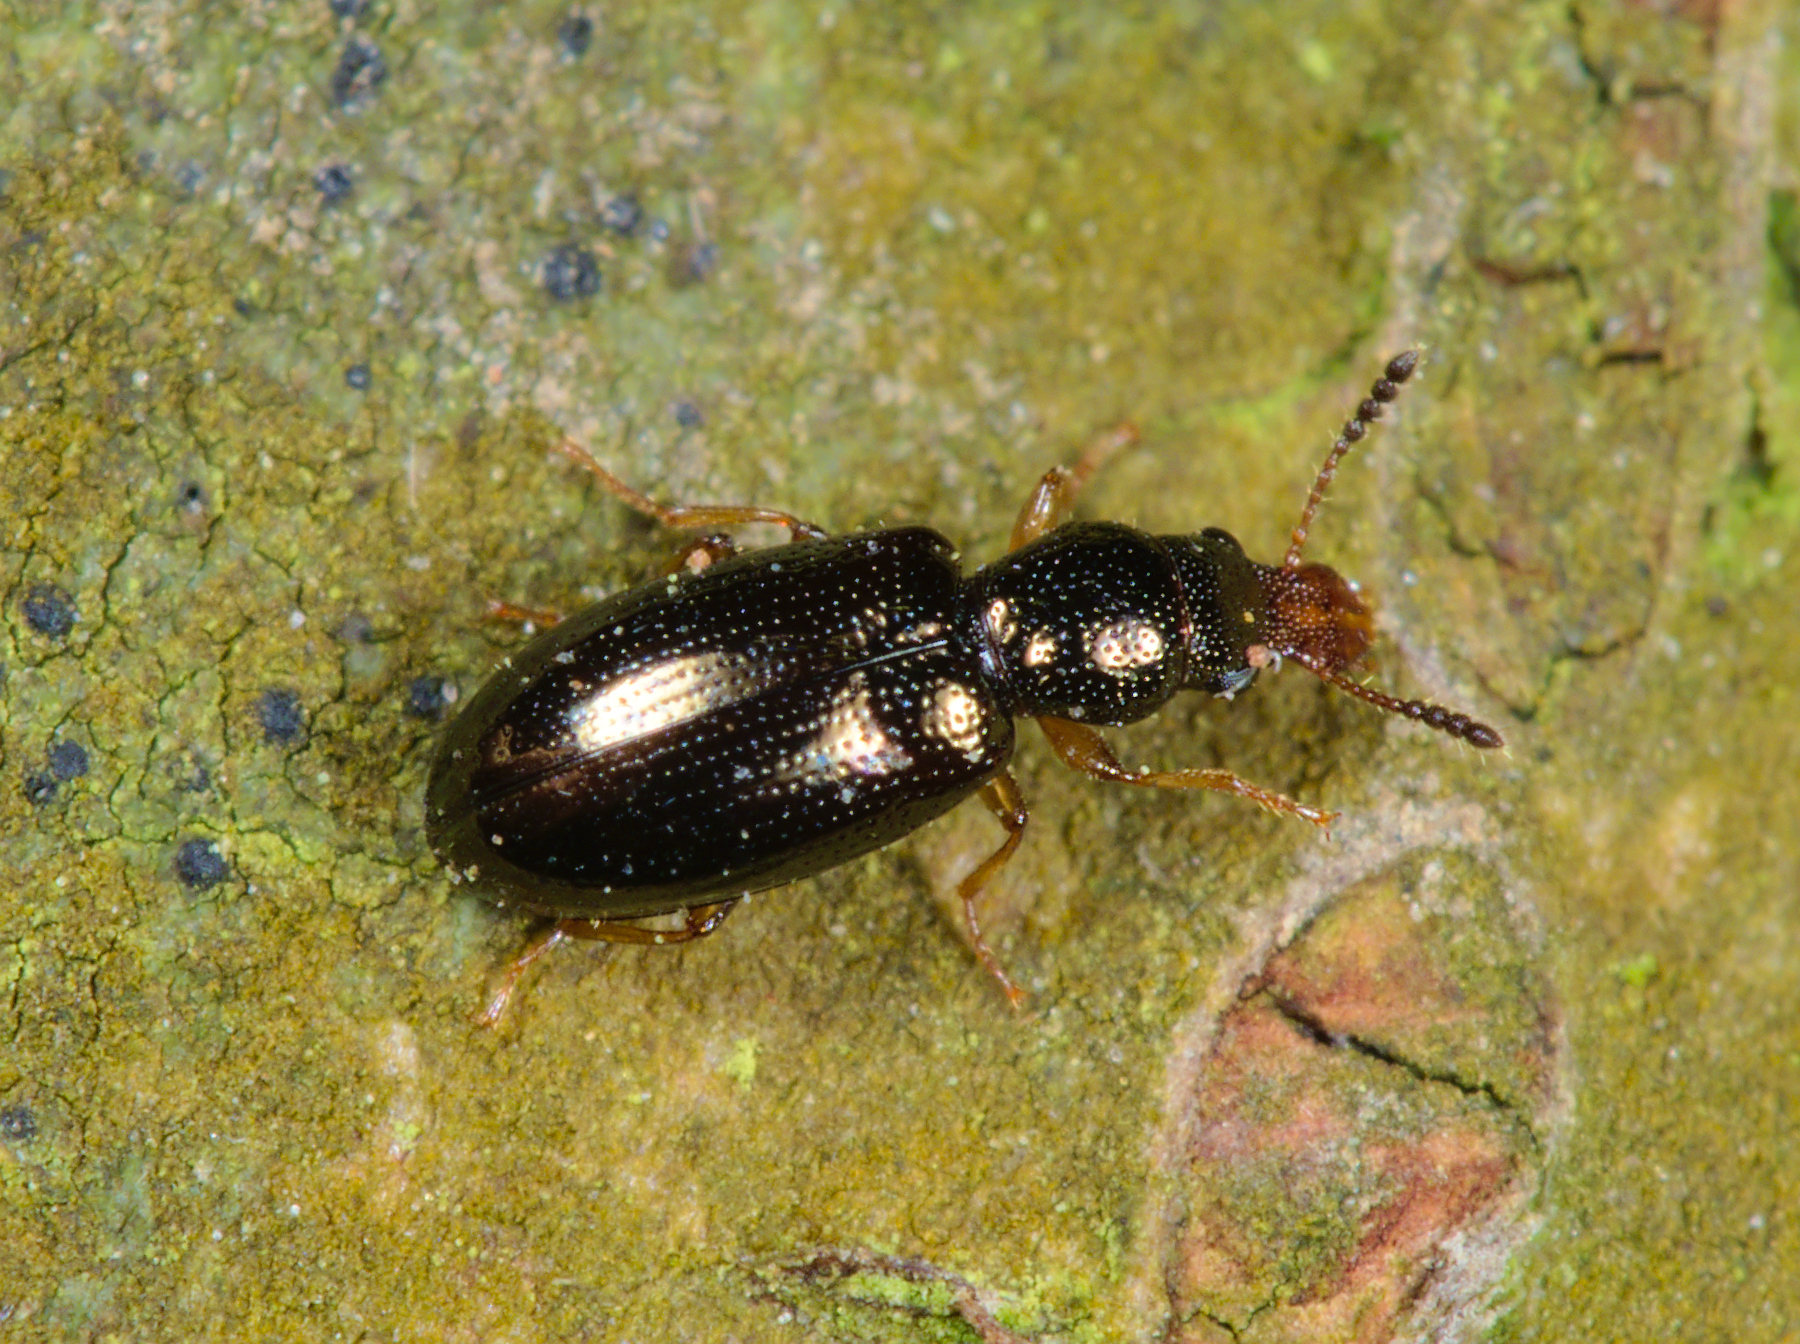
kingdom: Animalia
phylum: Arthropoda
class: Insecta
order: Coleoptera
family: Salpingidae
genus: Salpingus
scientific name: Salpingus planirostris
